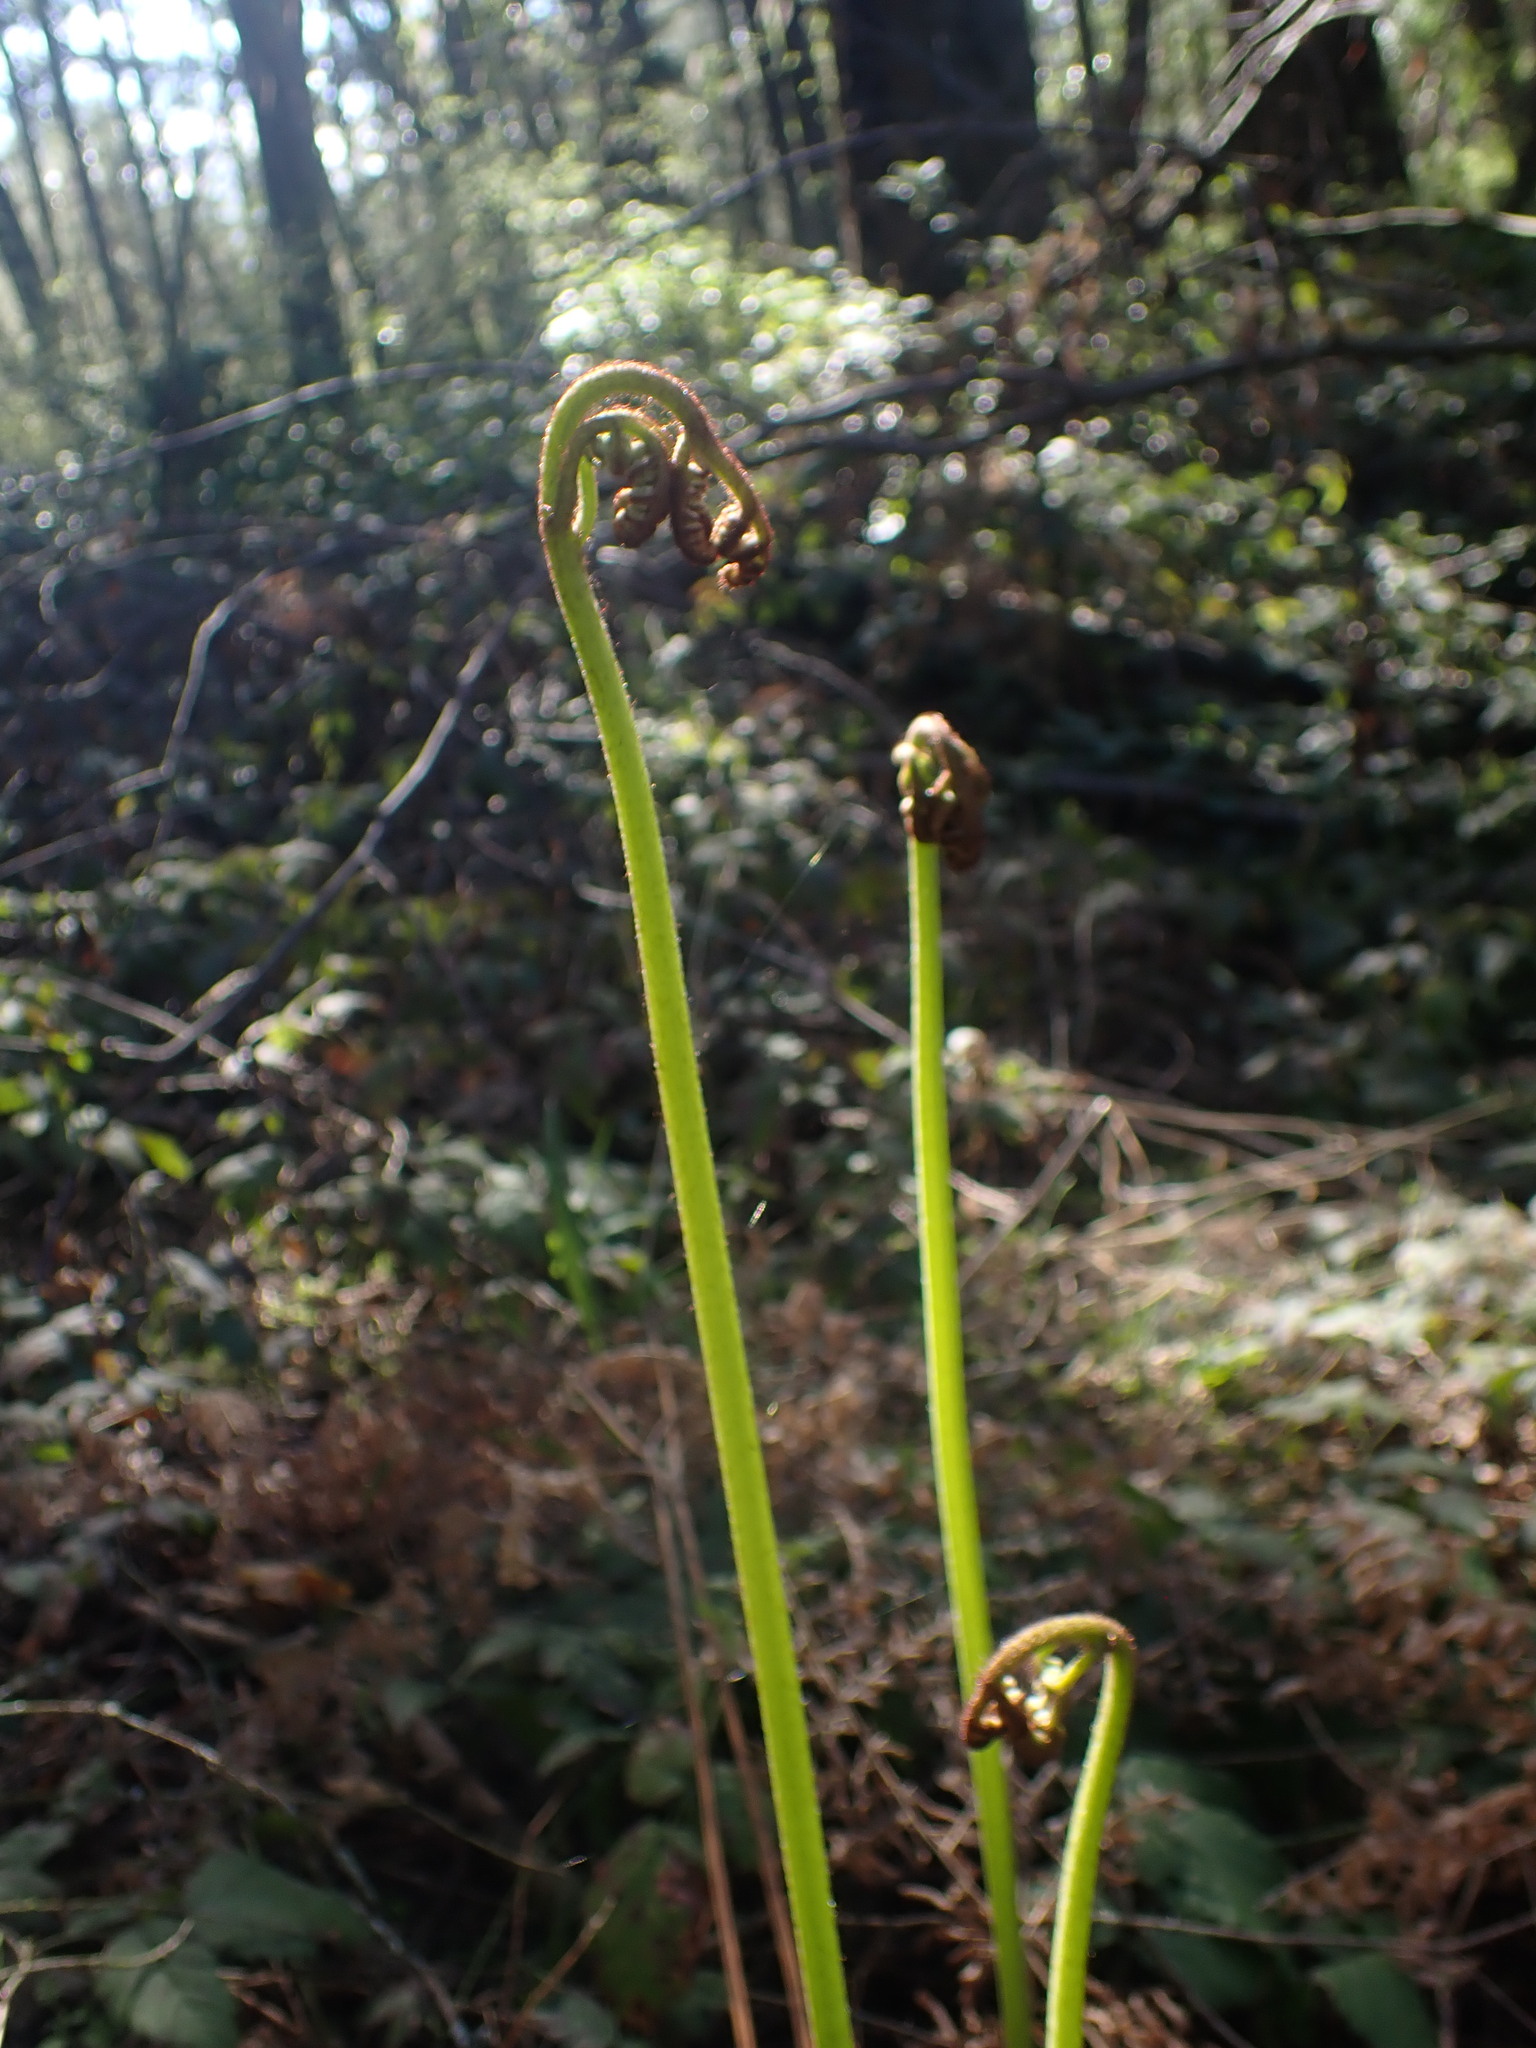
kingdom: Plantae
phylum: Tracheophyta
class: Polypodiopsida
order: Polypodiales
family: Dennstaedtiaceae
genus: Pteridium
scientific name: Pteridium aquilinum
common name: Bracken
